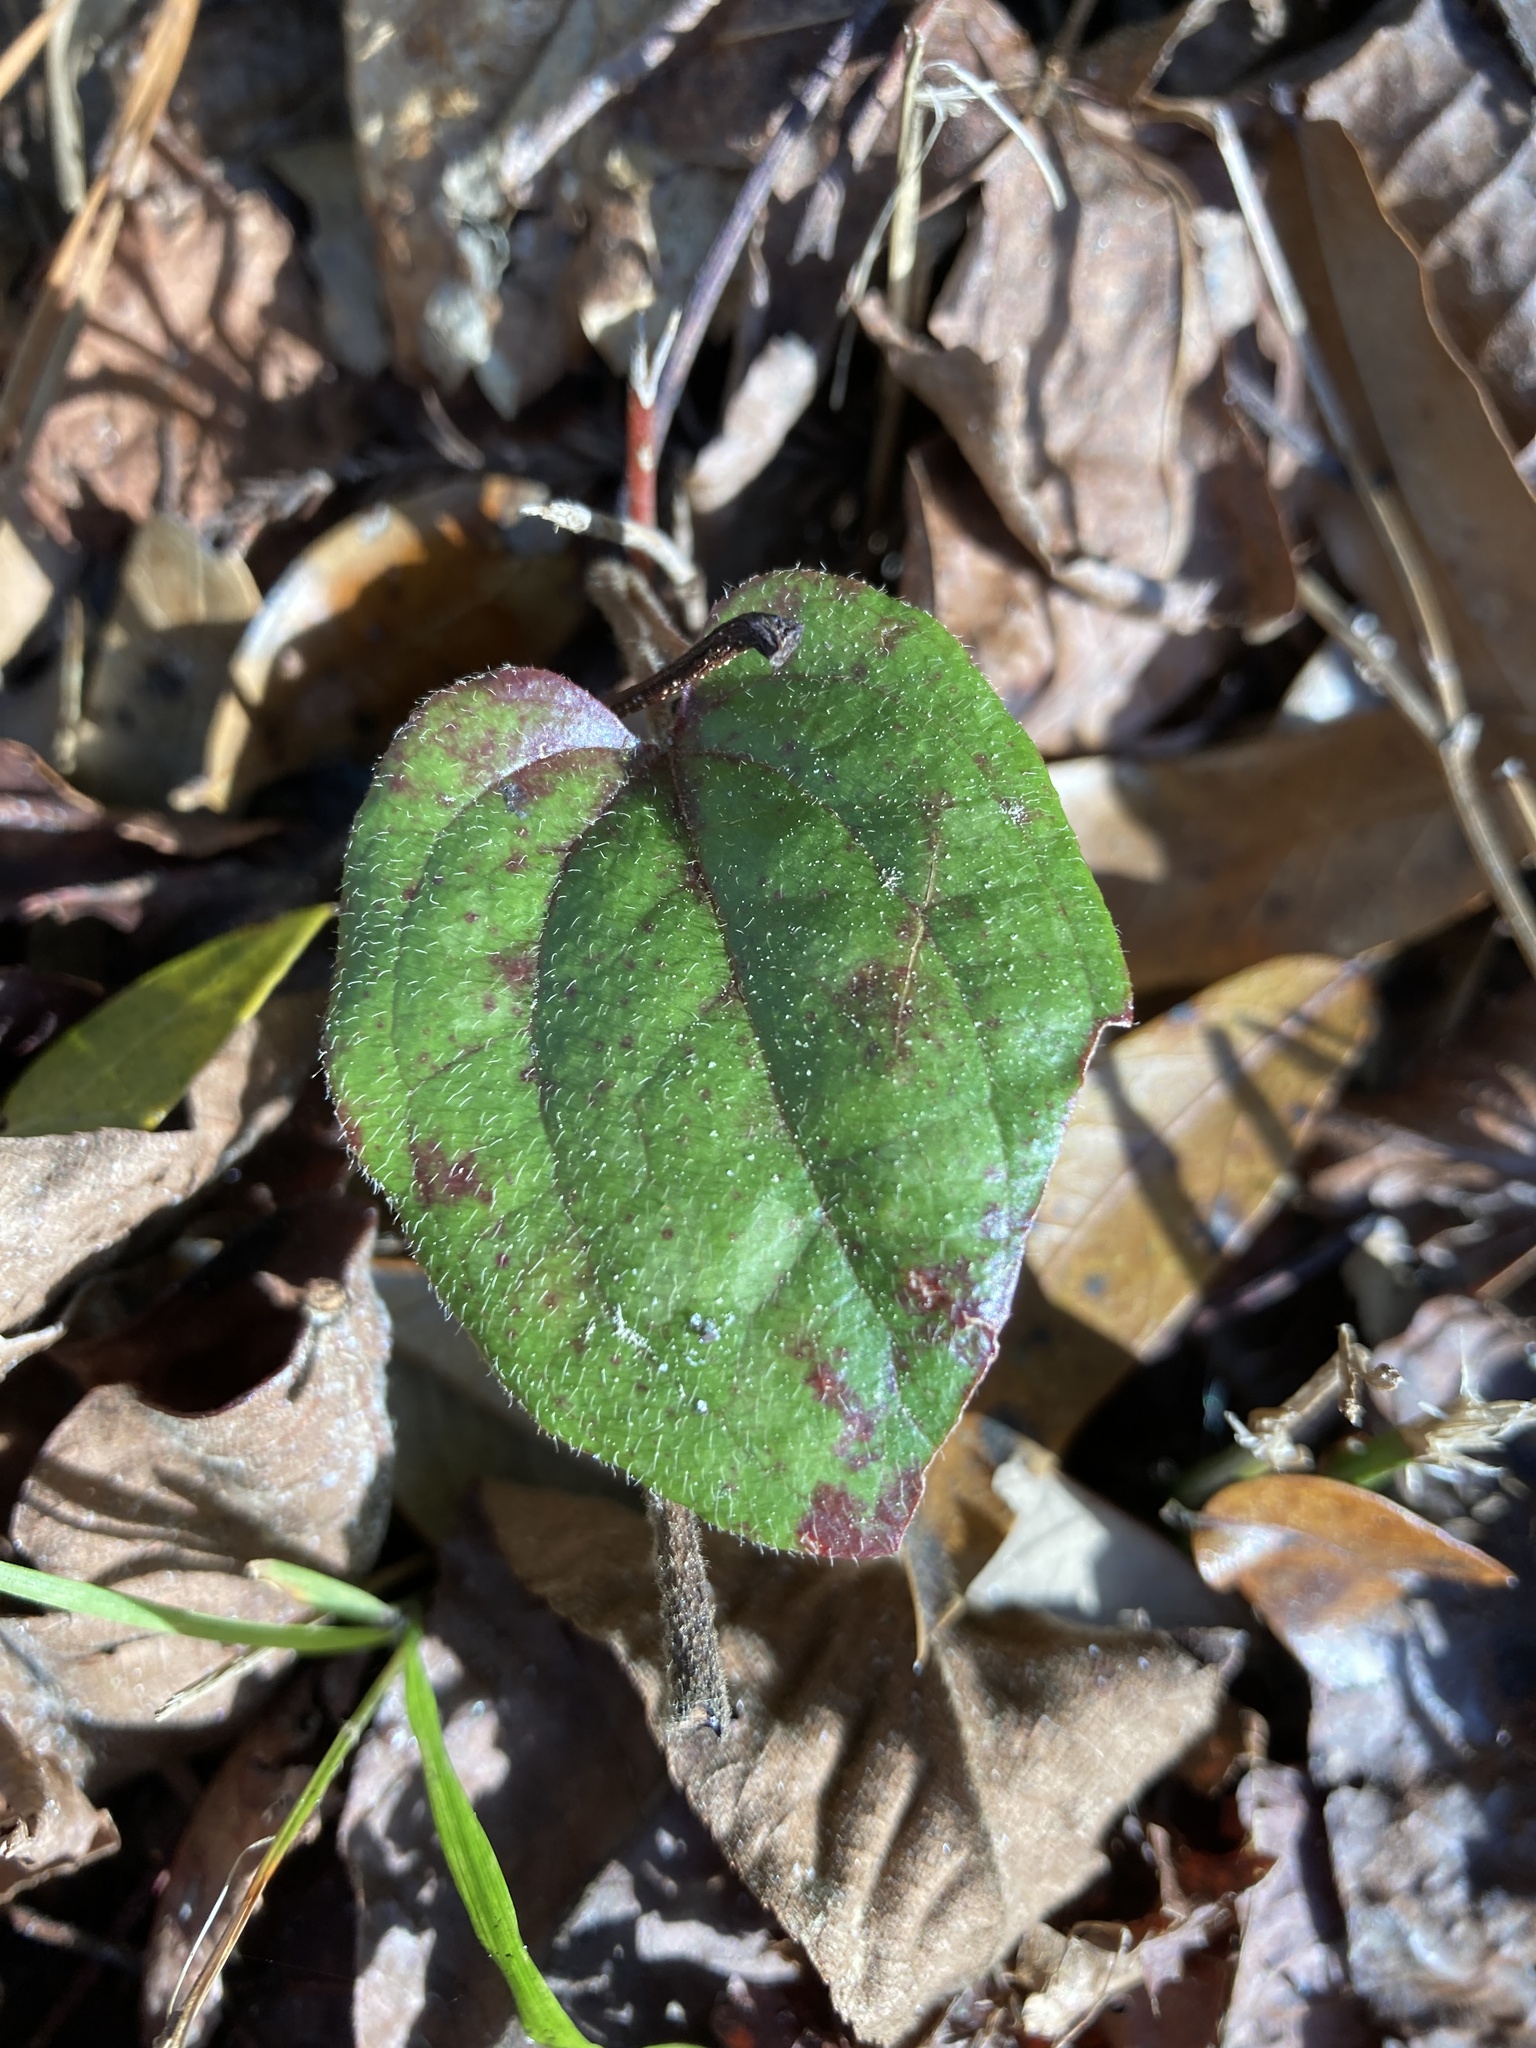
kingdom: Plantae
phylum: Tracheophyta
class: Liliopsida
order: Liliales
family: Smilacaceae
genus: Smilax
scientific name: Smilax pumila
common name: Sarsaparilla-vine
